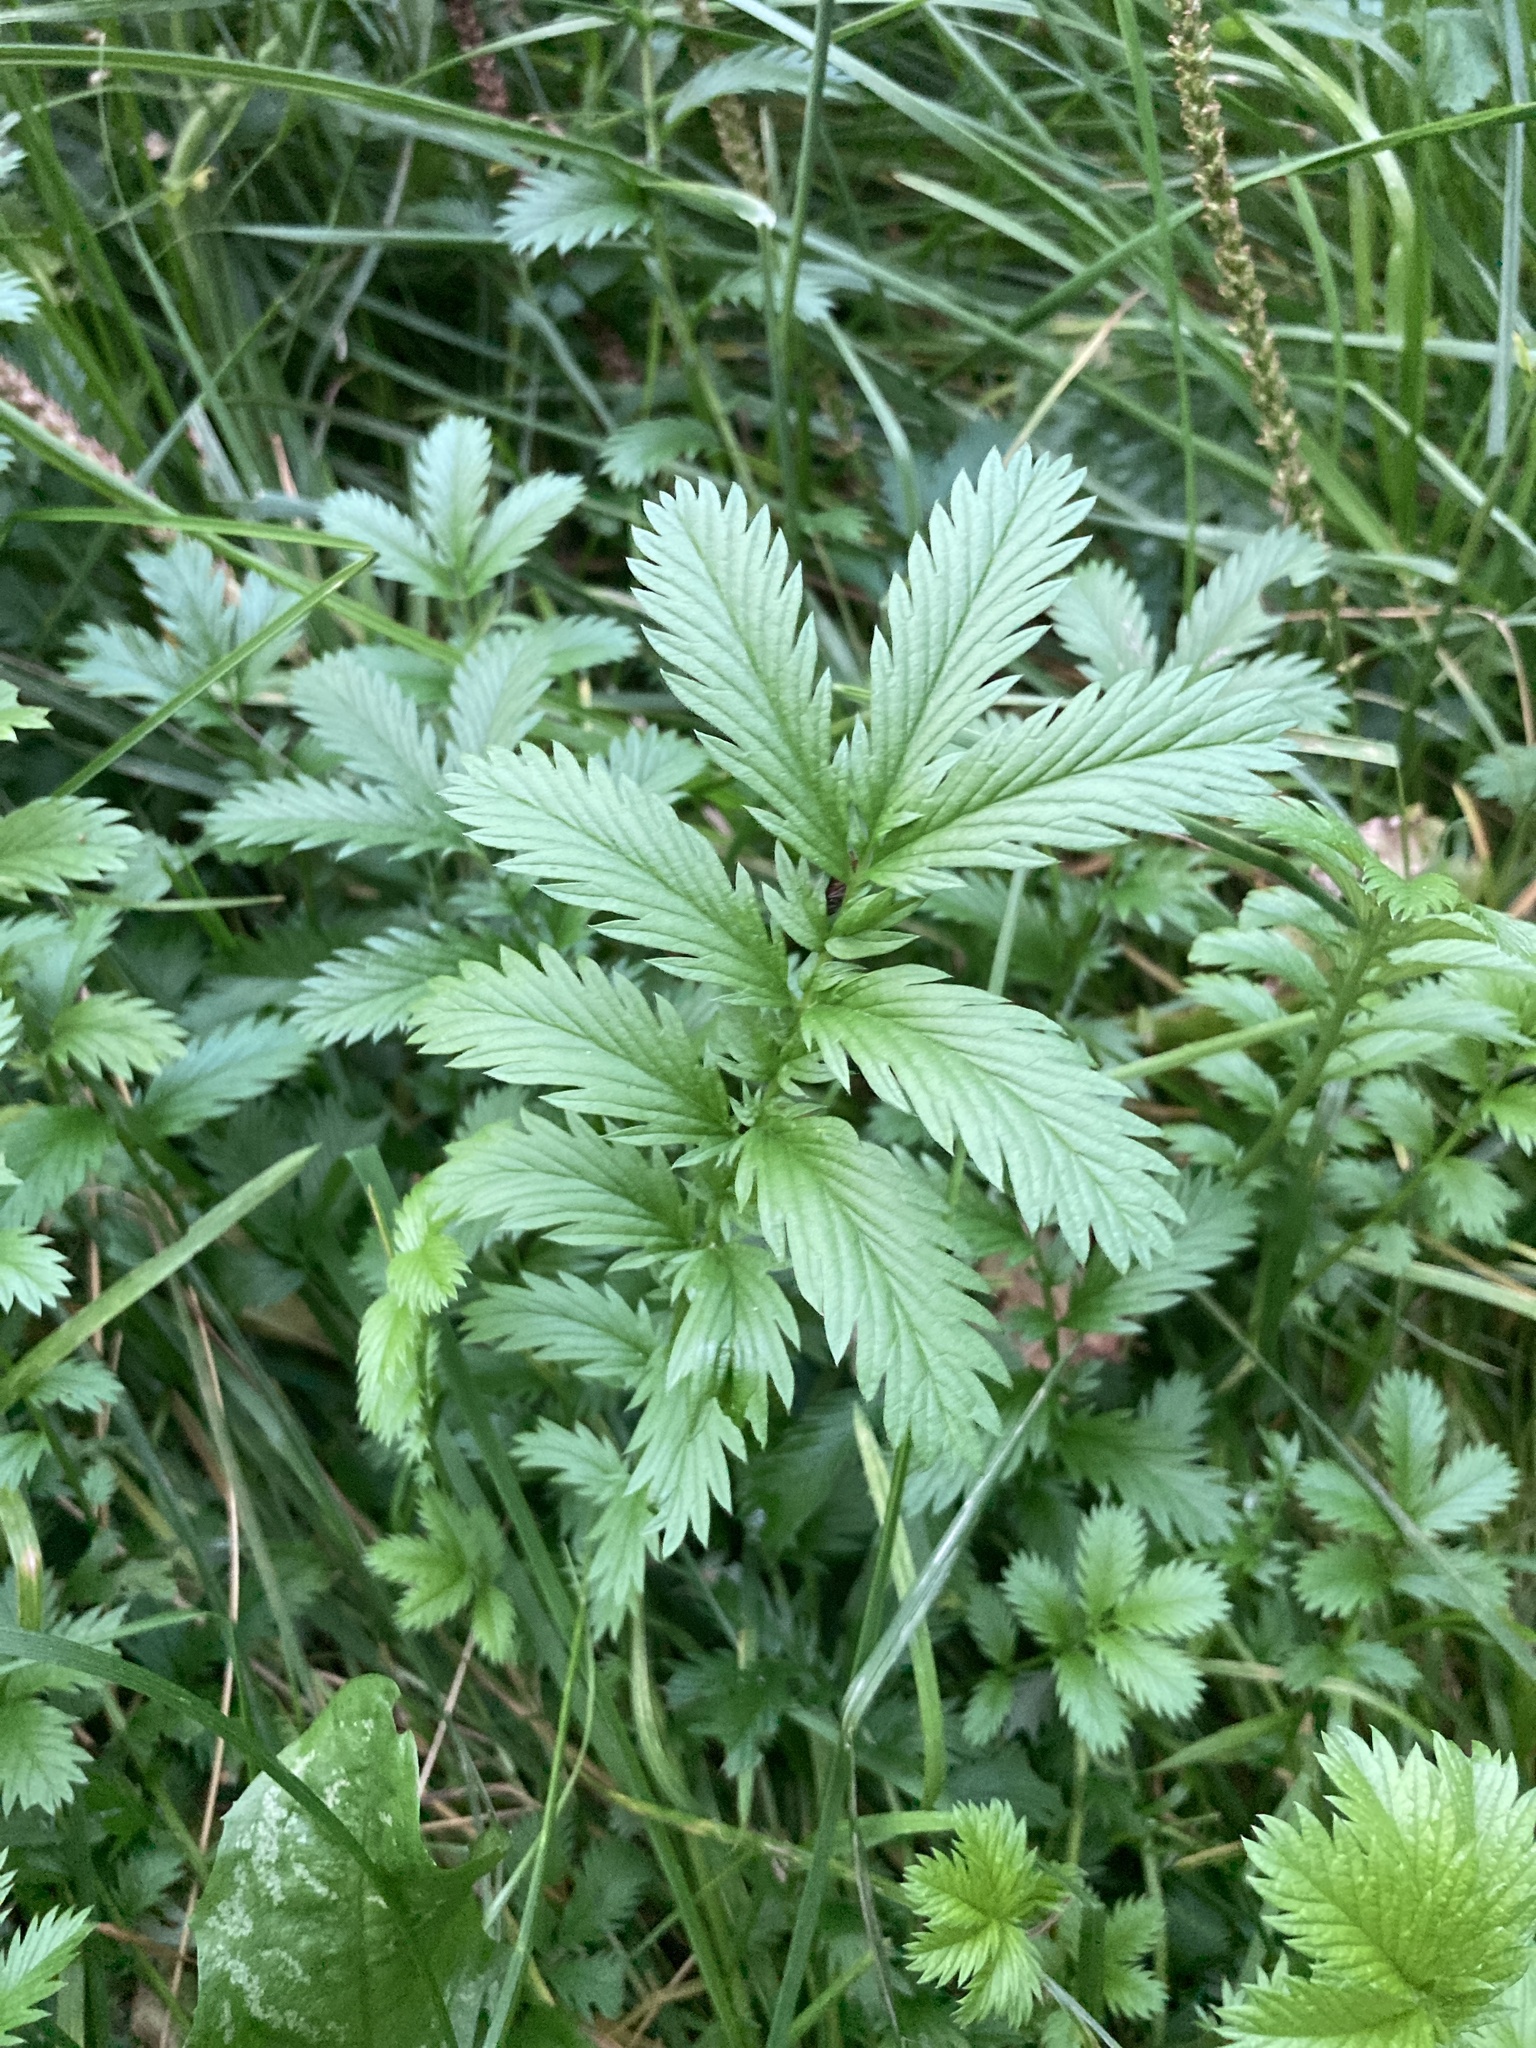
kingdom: Plantae
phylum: Tracheophyta
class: Magnoliopsida
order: Rosales
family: Rosaceae
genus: Argentina
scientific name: Argentina anserina
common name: Common silverweed
